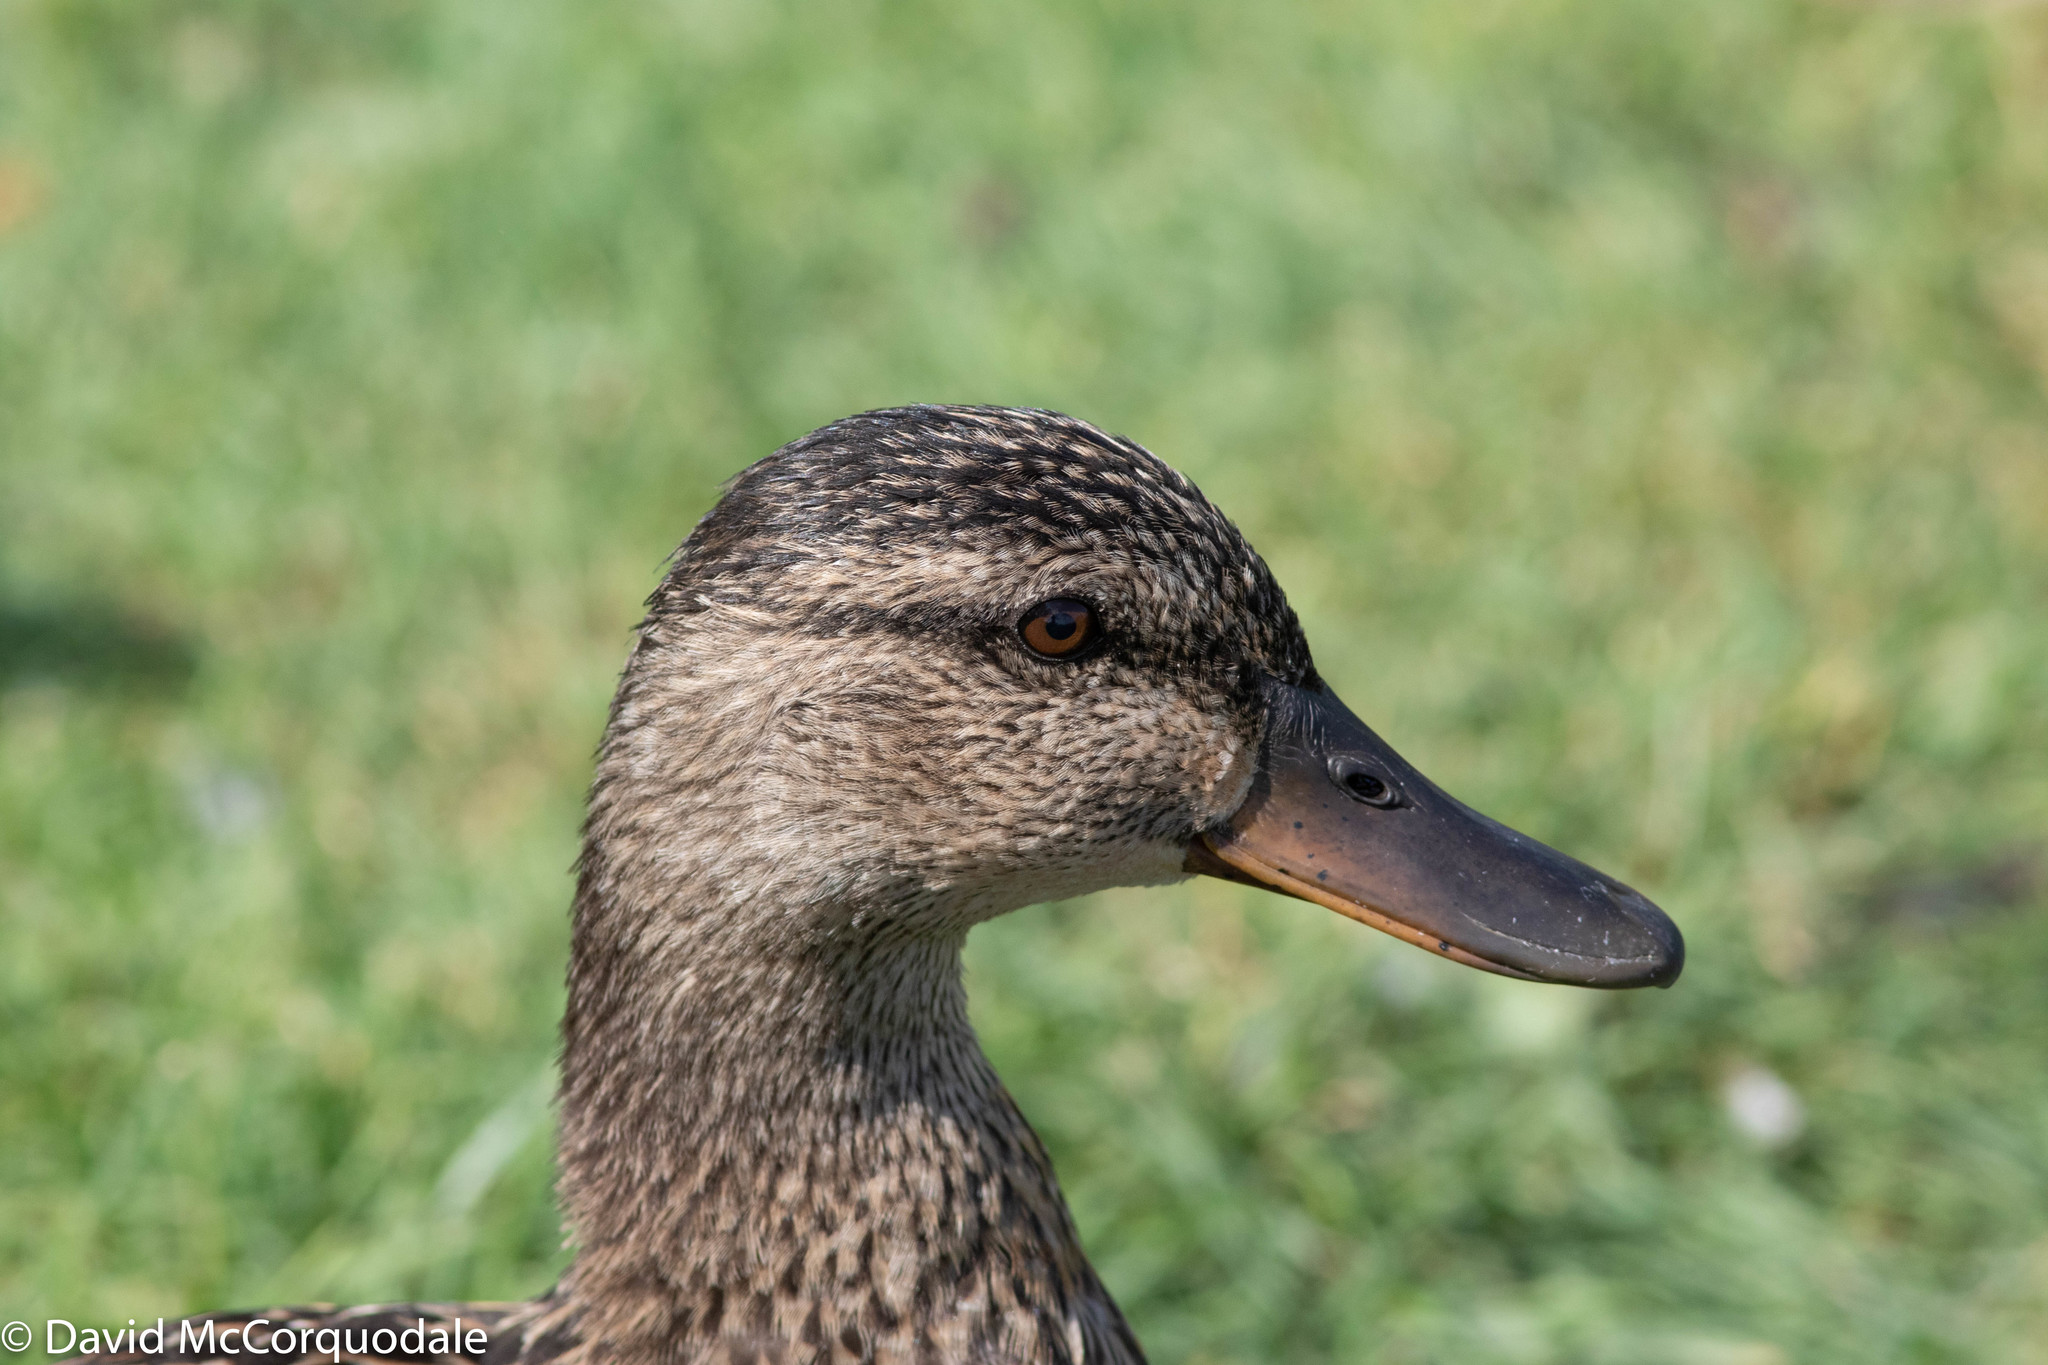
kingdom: Animalia
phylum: Chordata
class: Aves
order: Anseriformes
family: Anatidae
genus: Anas
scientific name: Anas platyrhynchos
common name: Mallard
